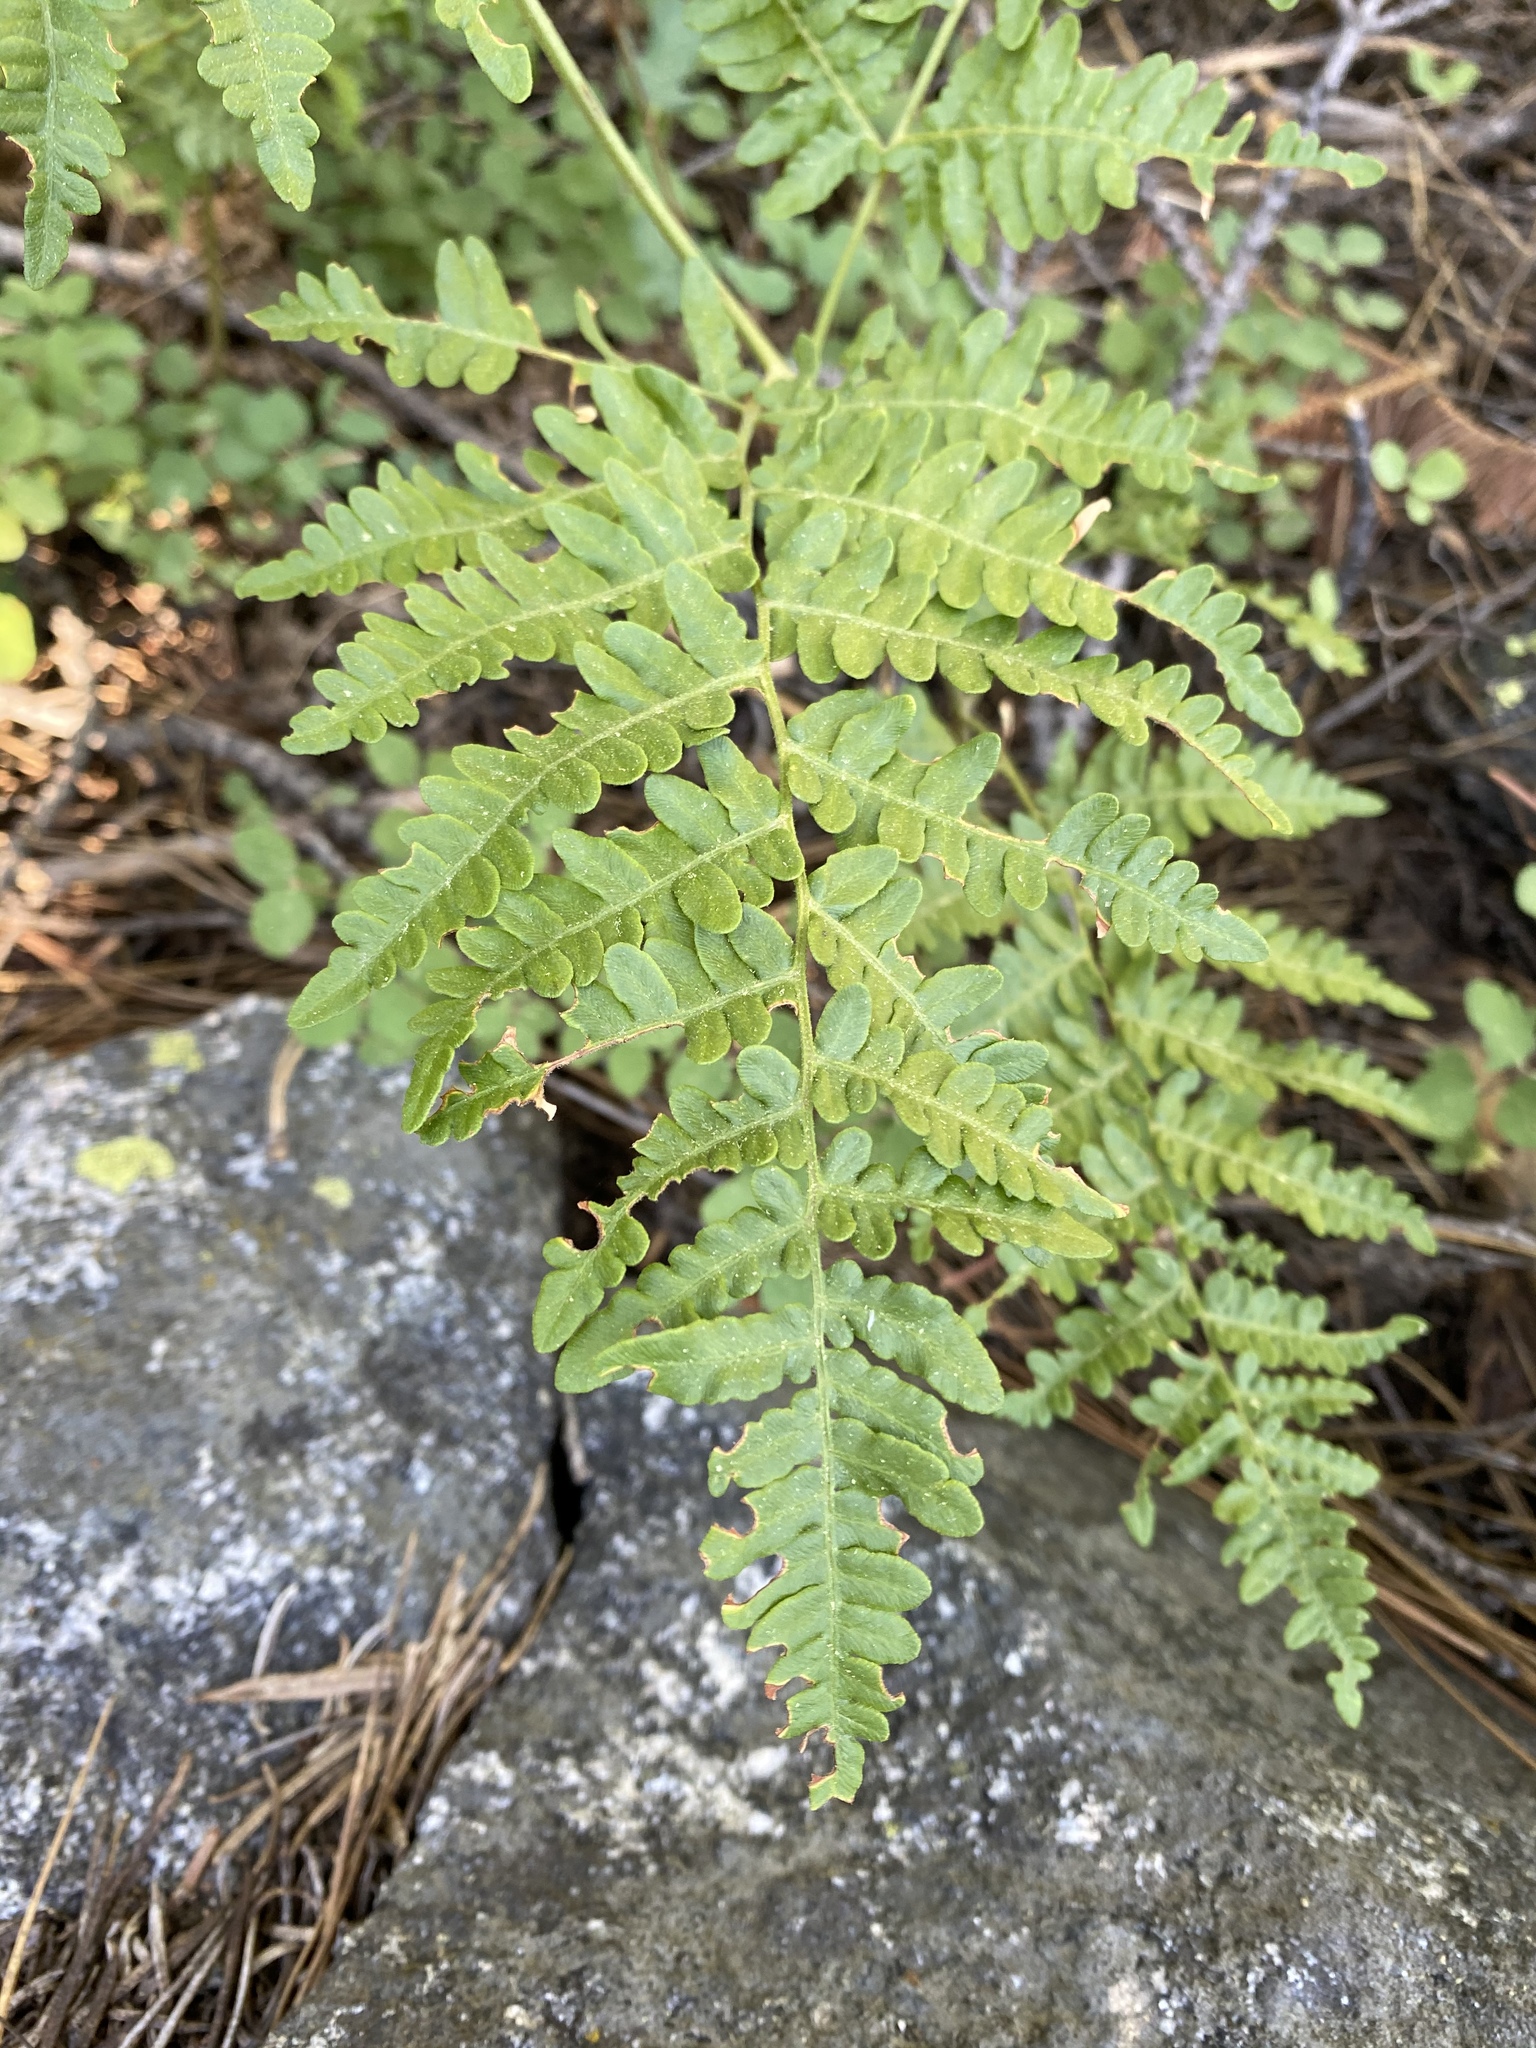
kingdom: Plantae
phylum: Tracheophyta
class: Polypodiopsida
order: Polypodiales
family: Dennstaedtiaceae
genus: Pteridium
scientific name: Pteridium aquilinum
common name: Bracken
